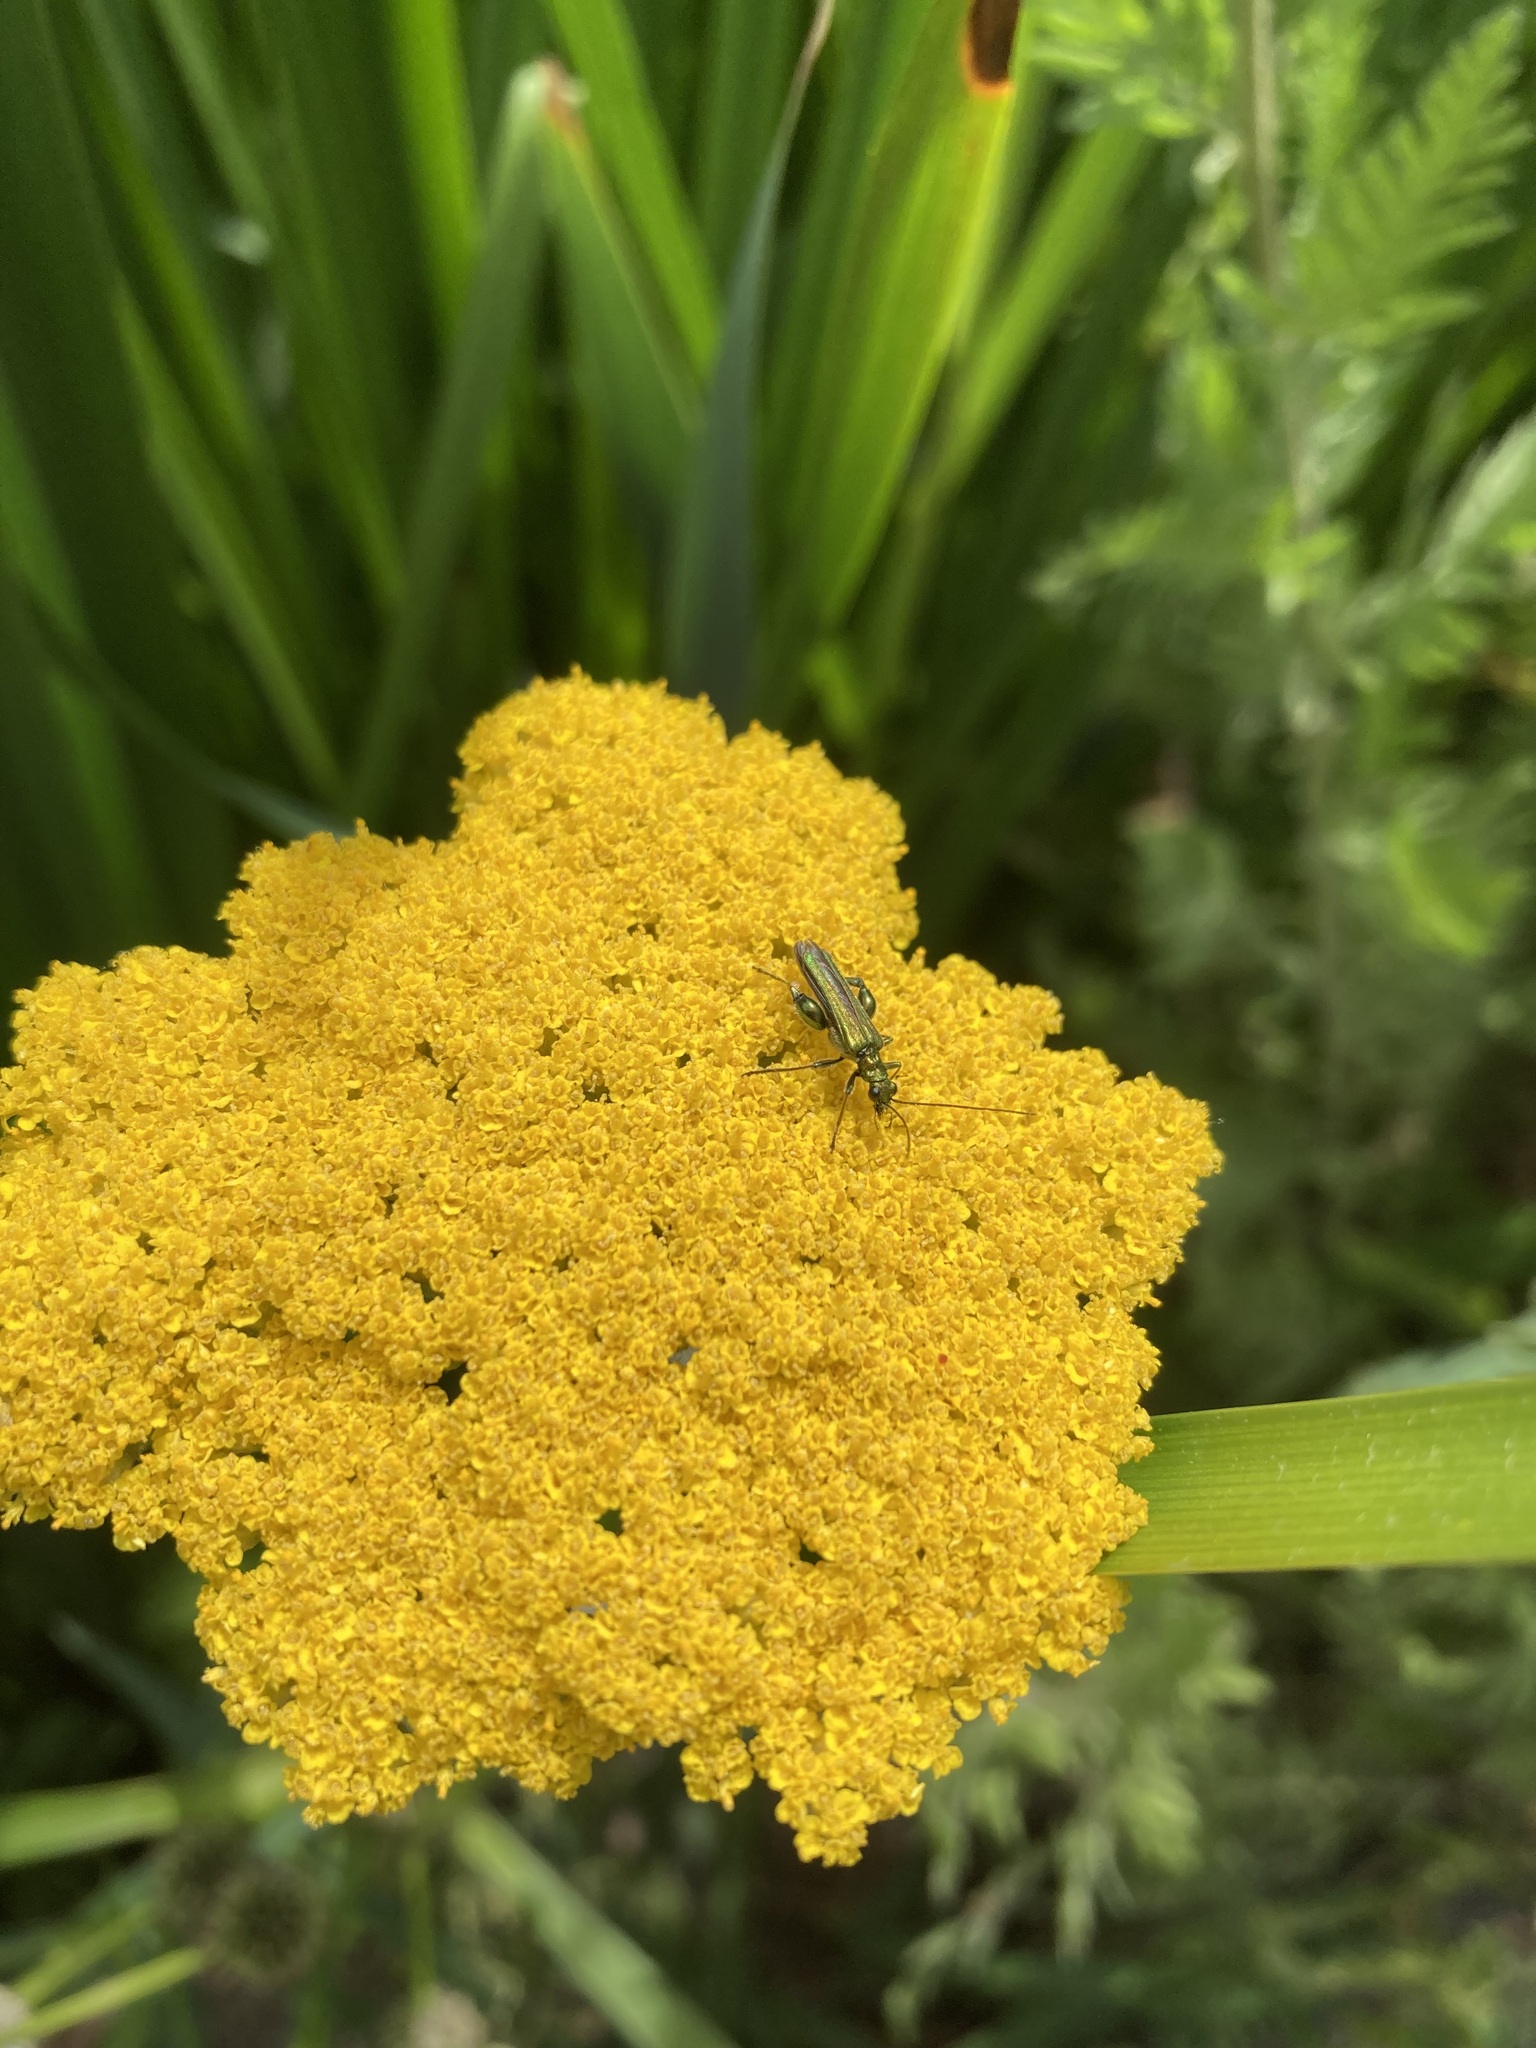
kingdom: Animalia
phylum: Arthropoda
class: Insecta
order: Coleoptera
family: Oedemeridae
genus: Oedemera
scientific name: Oedemera nobilis
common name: Swollen-thighed beetle
